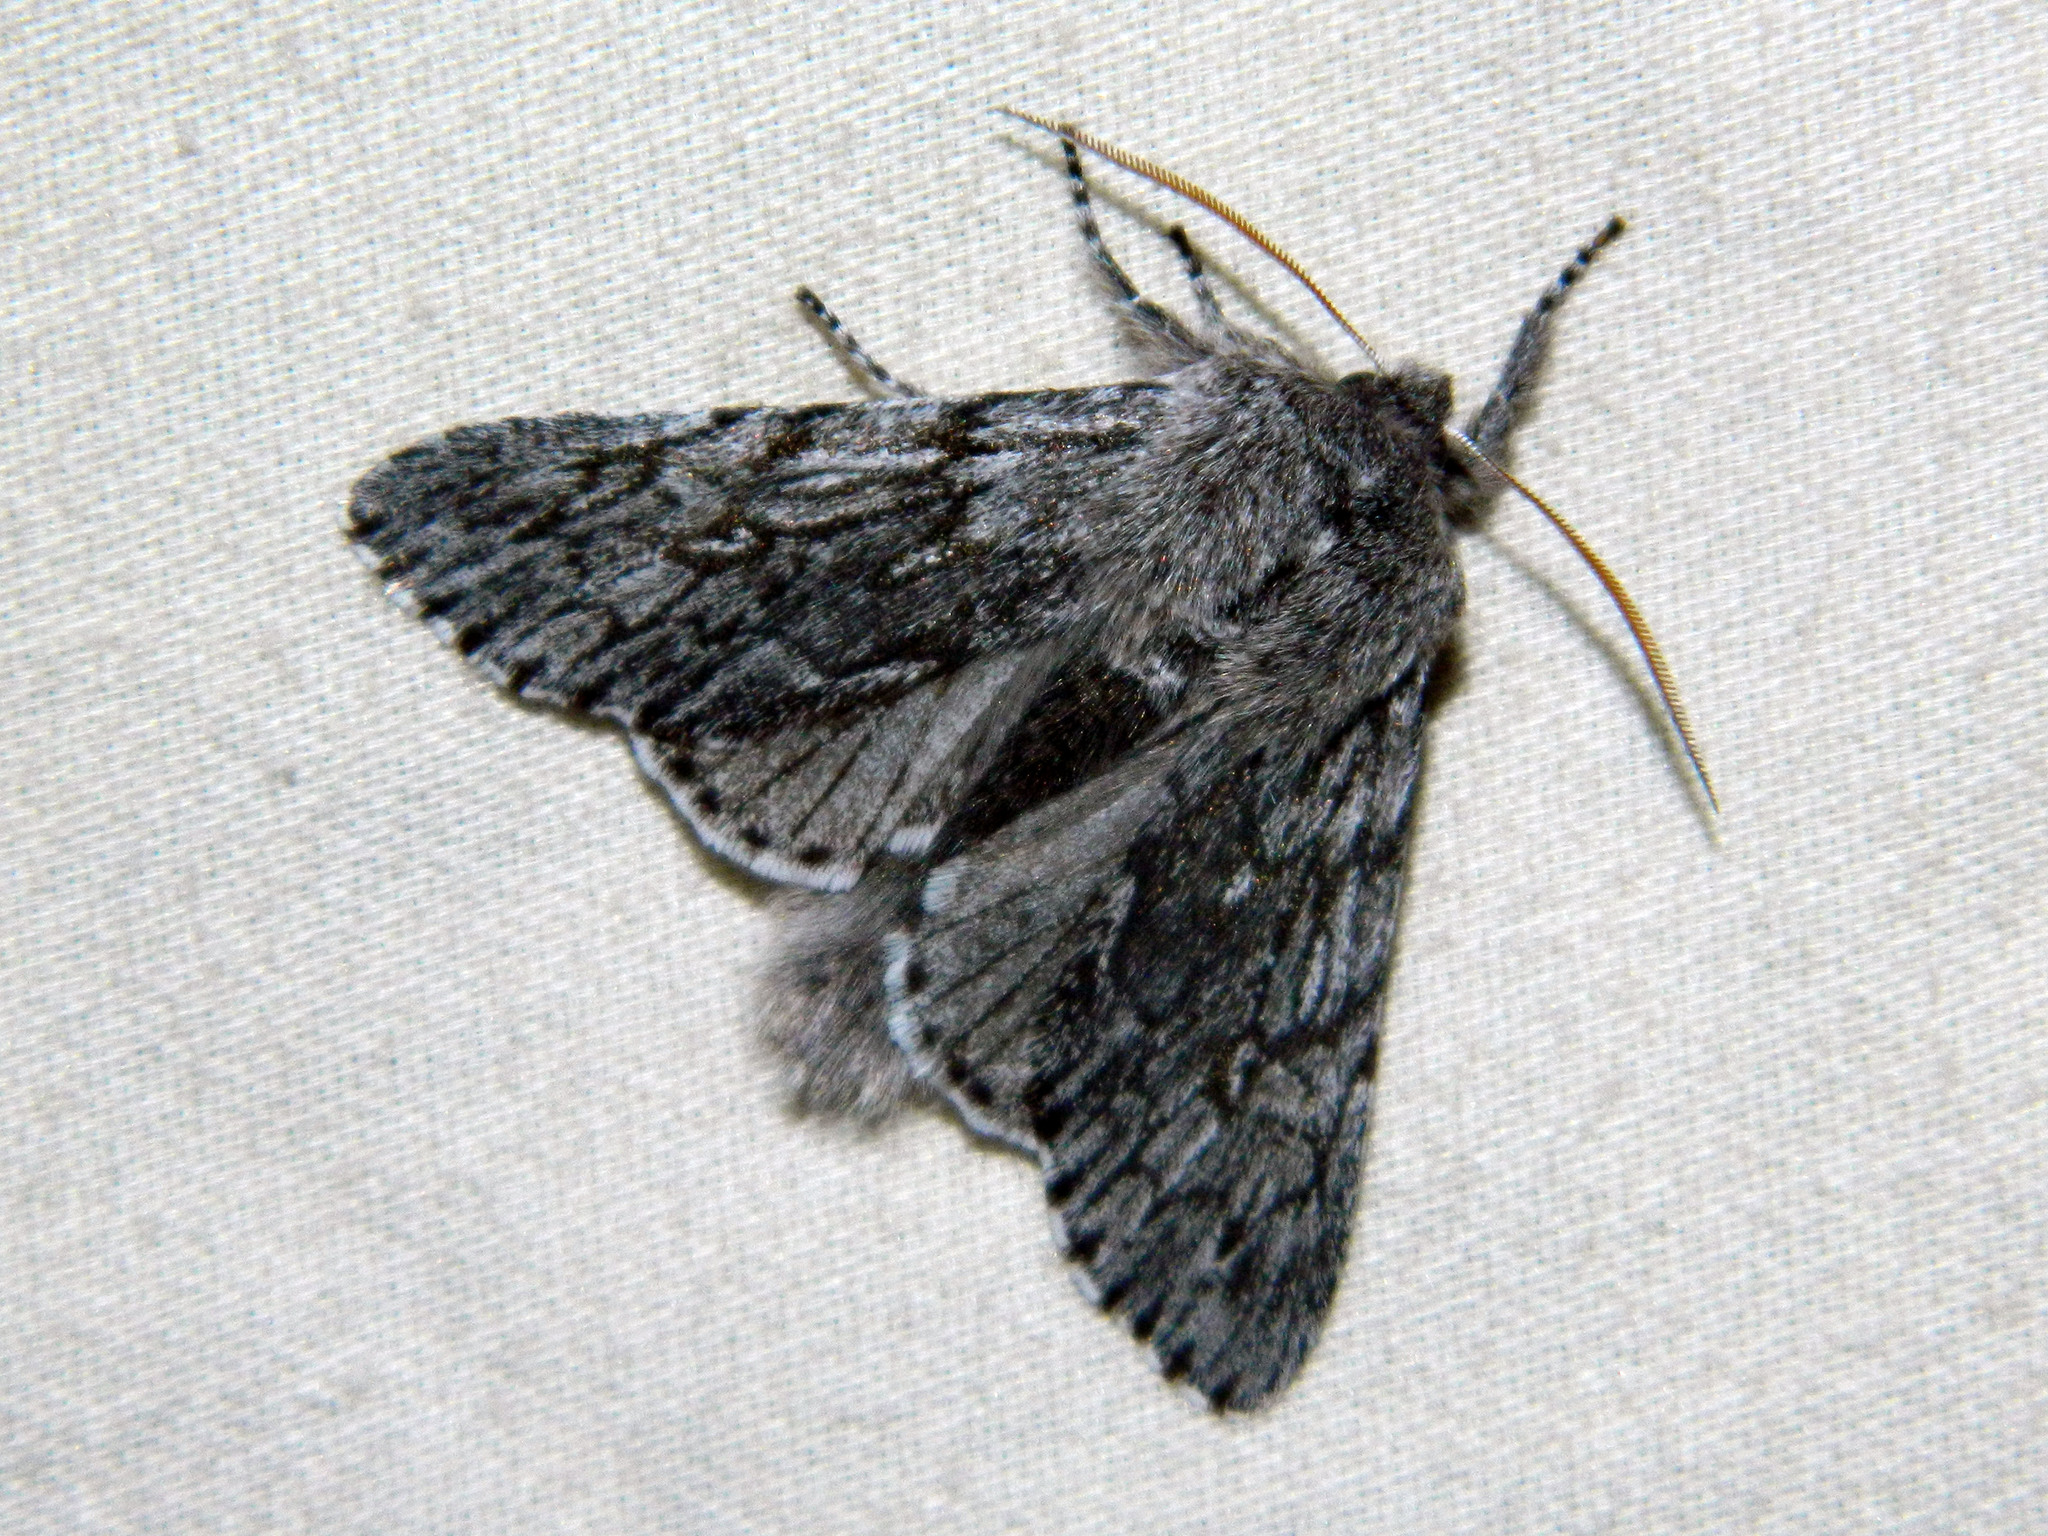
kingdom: Animalia
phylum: Arthropoda
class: Insecta
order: Lepidoptera
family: Noctuidae
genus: Brachionycha
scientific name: Brachionycha borealis
